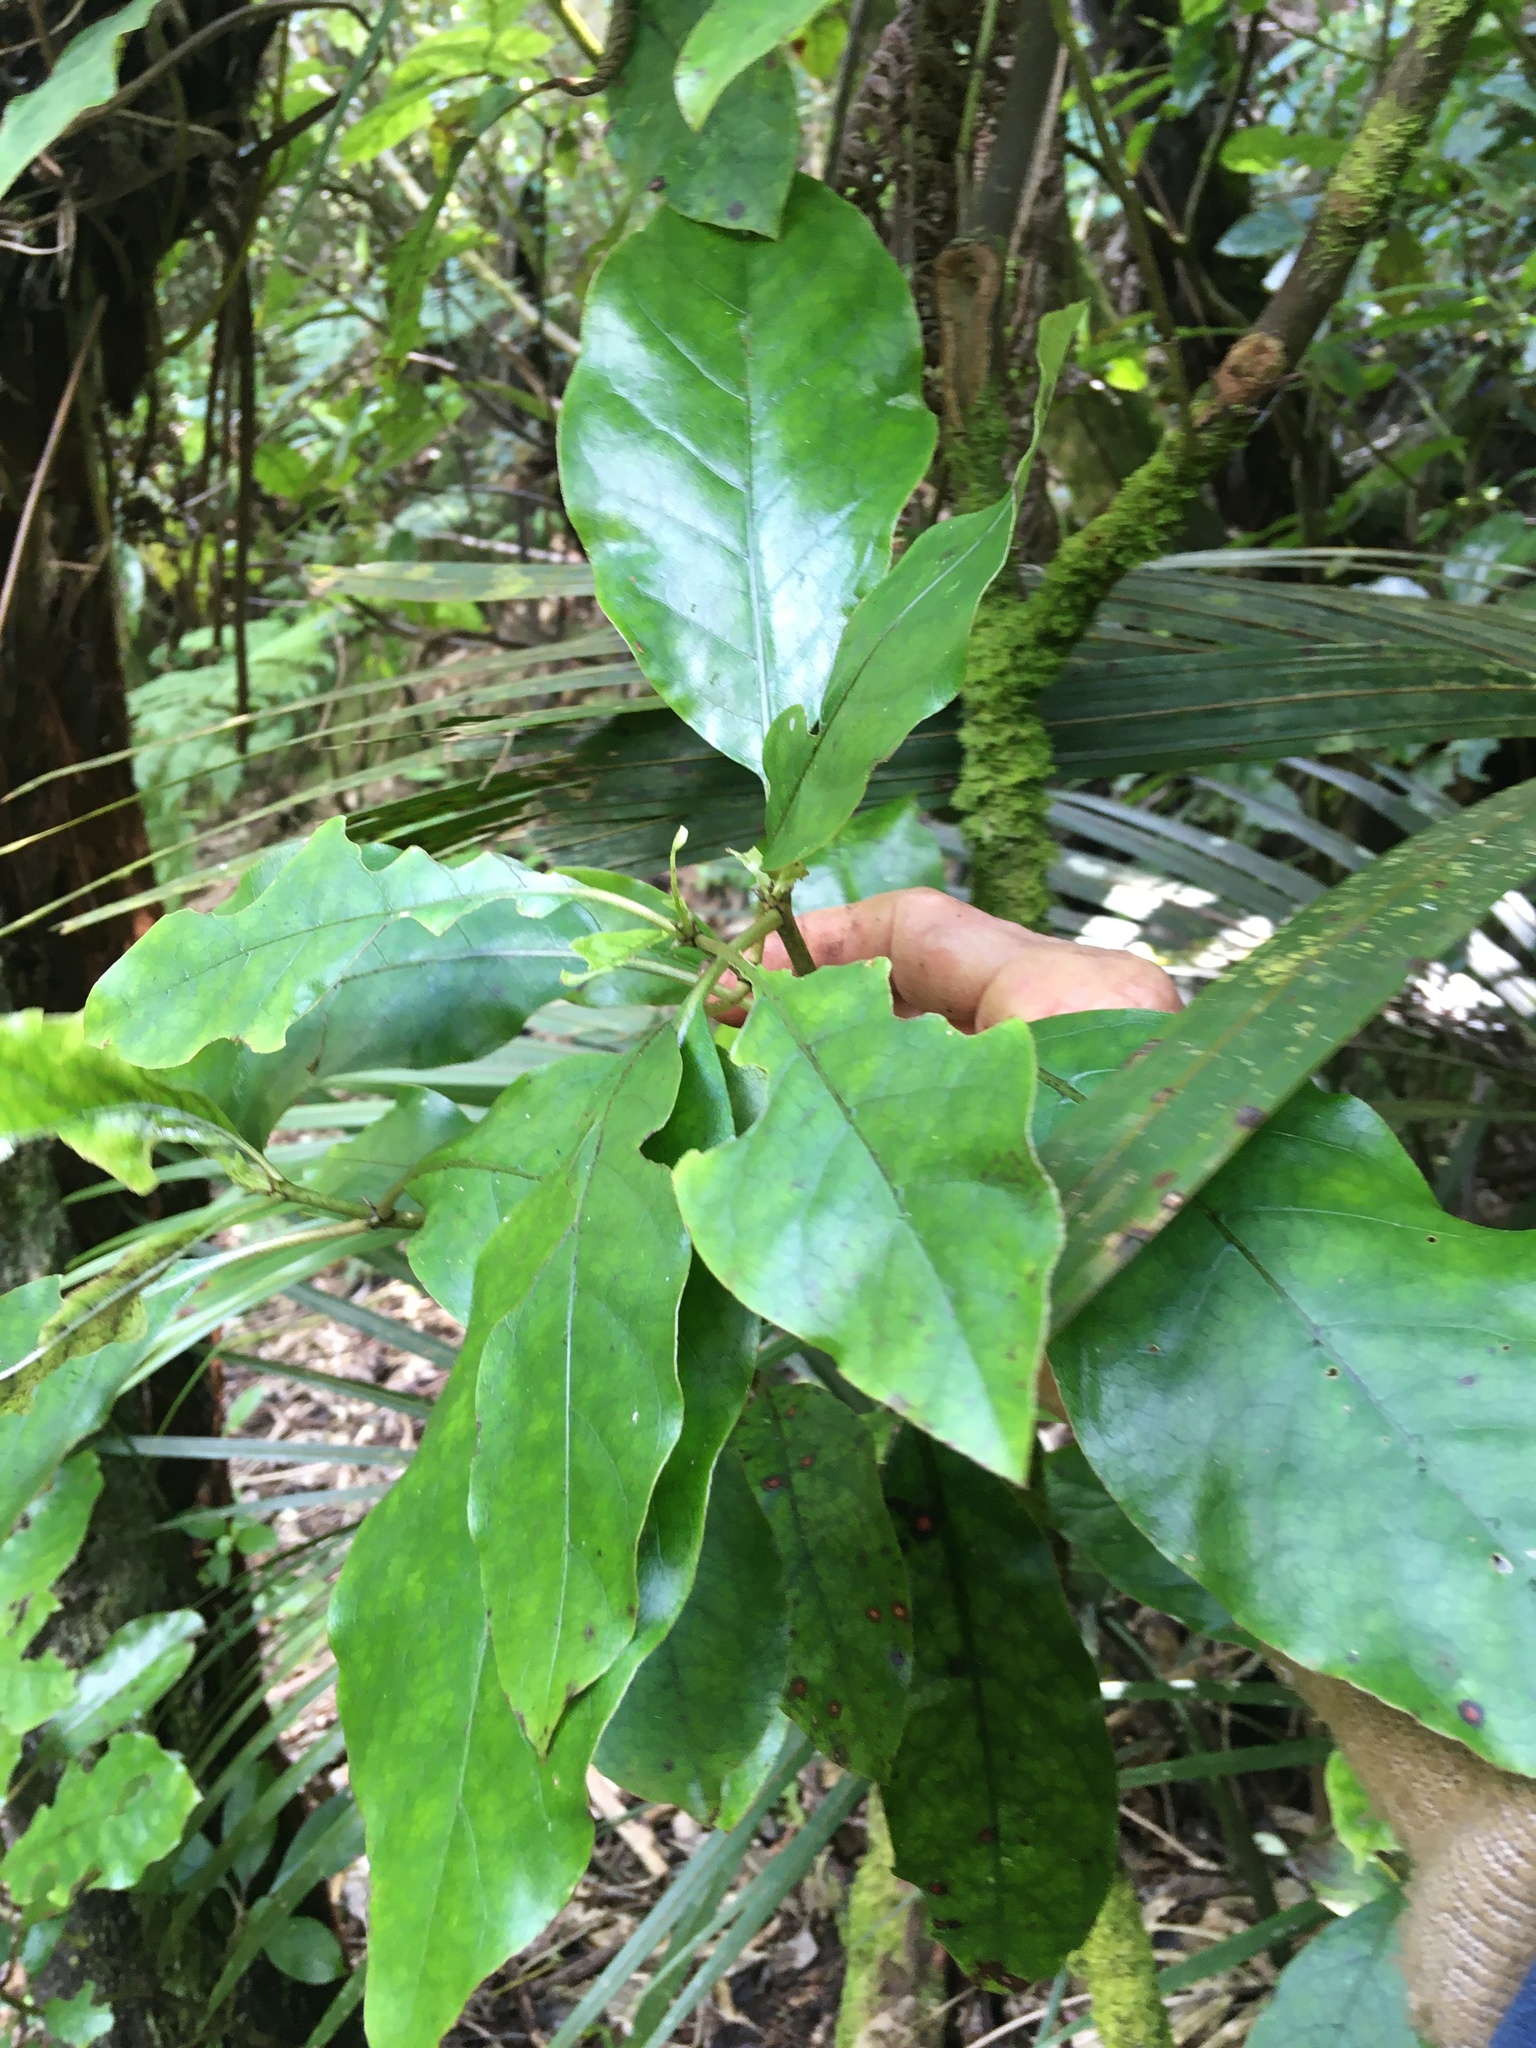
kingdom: Plantae
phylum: Tracheophyta
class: Magnoliopsida
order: Gentianales
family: Rubiaceae
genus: Coprosma
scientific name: Coprosma autumnalis
